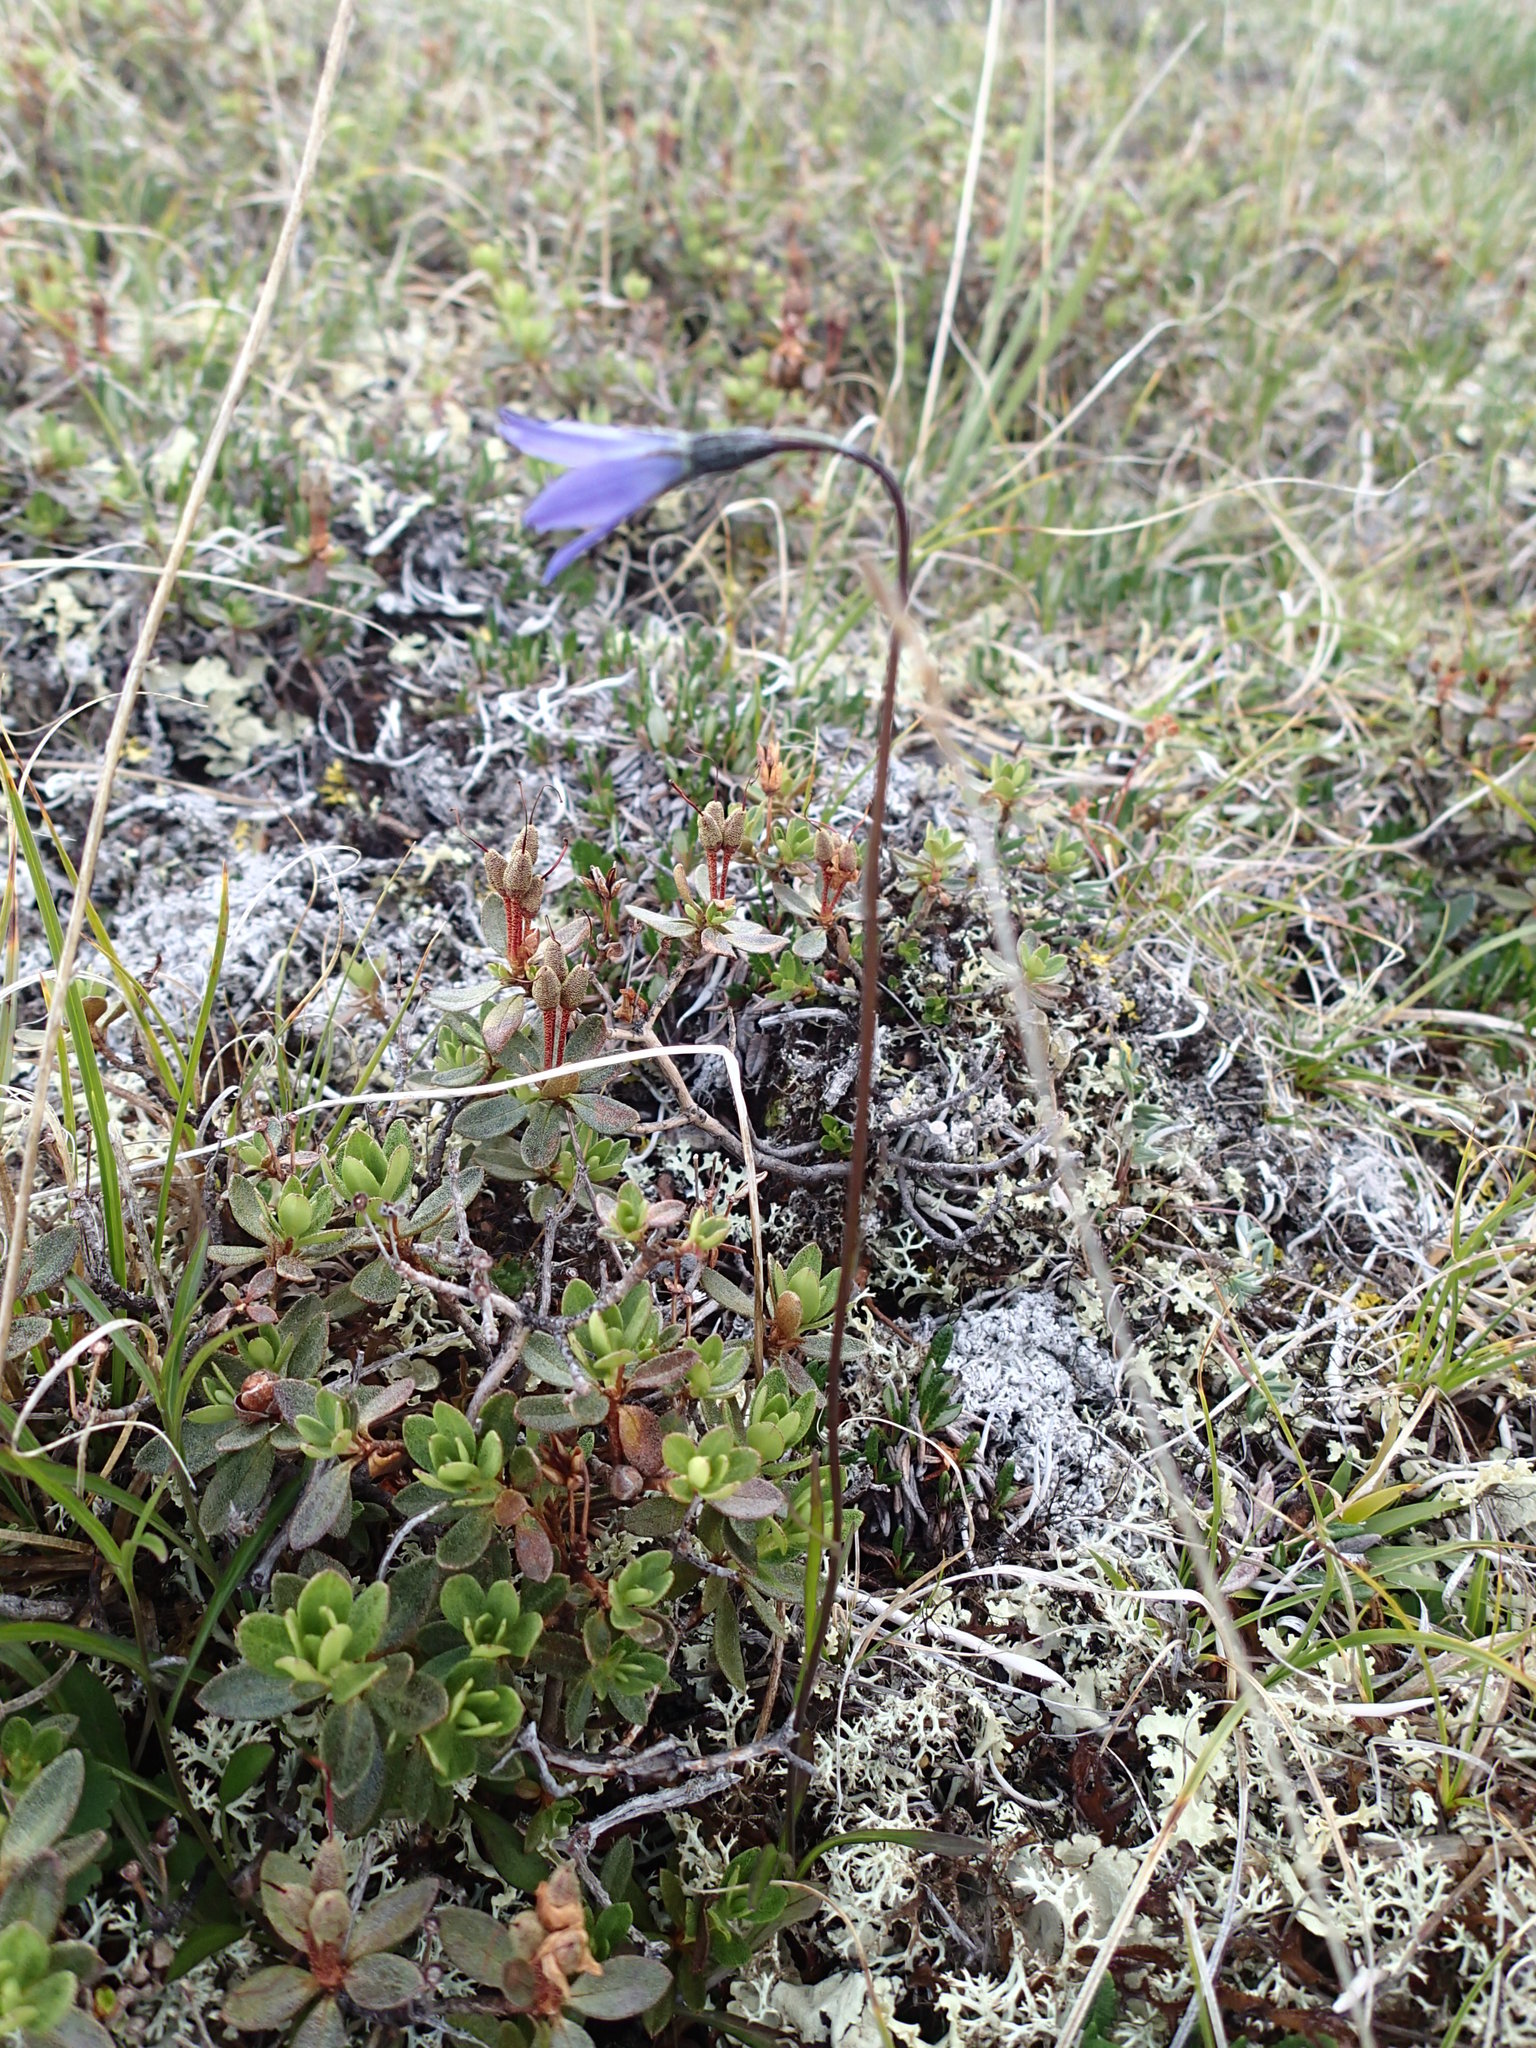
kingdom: Plantae
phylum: Tracheophyta
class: Magnoliopsida
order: Asterales
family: Campanulaceae
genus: Campanula
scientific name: Campanula uniflora
